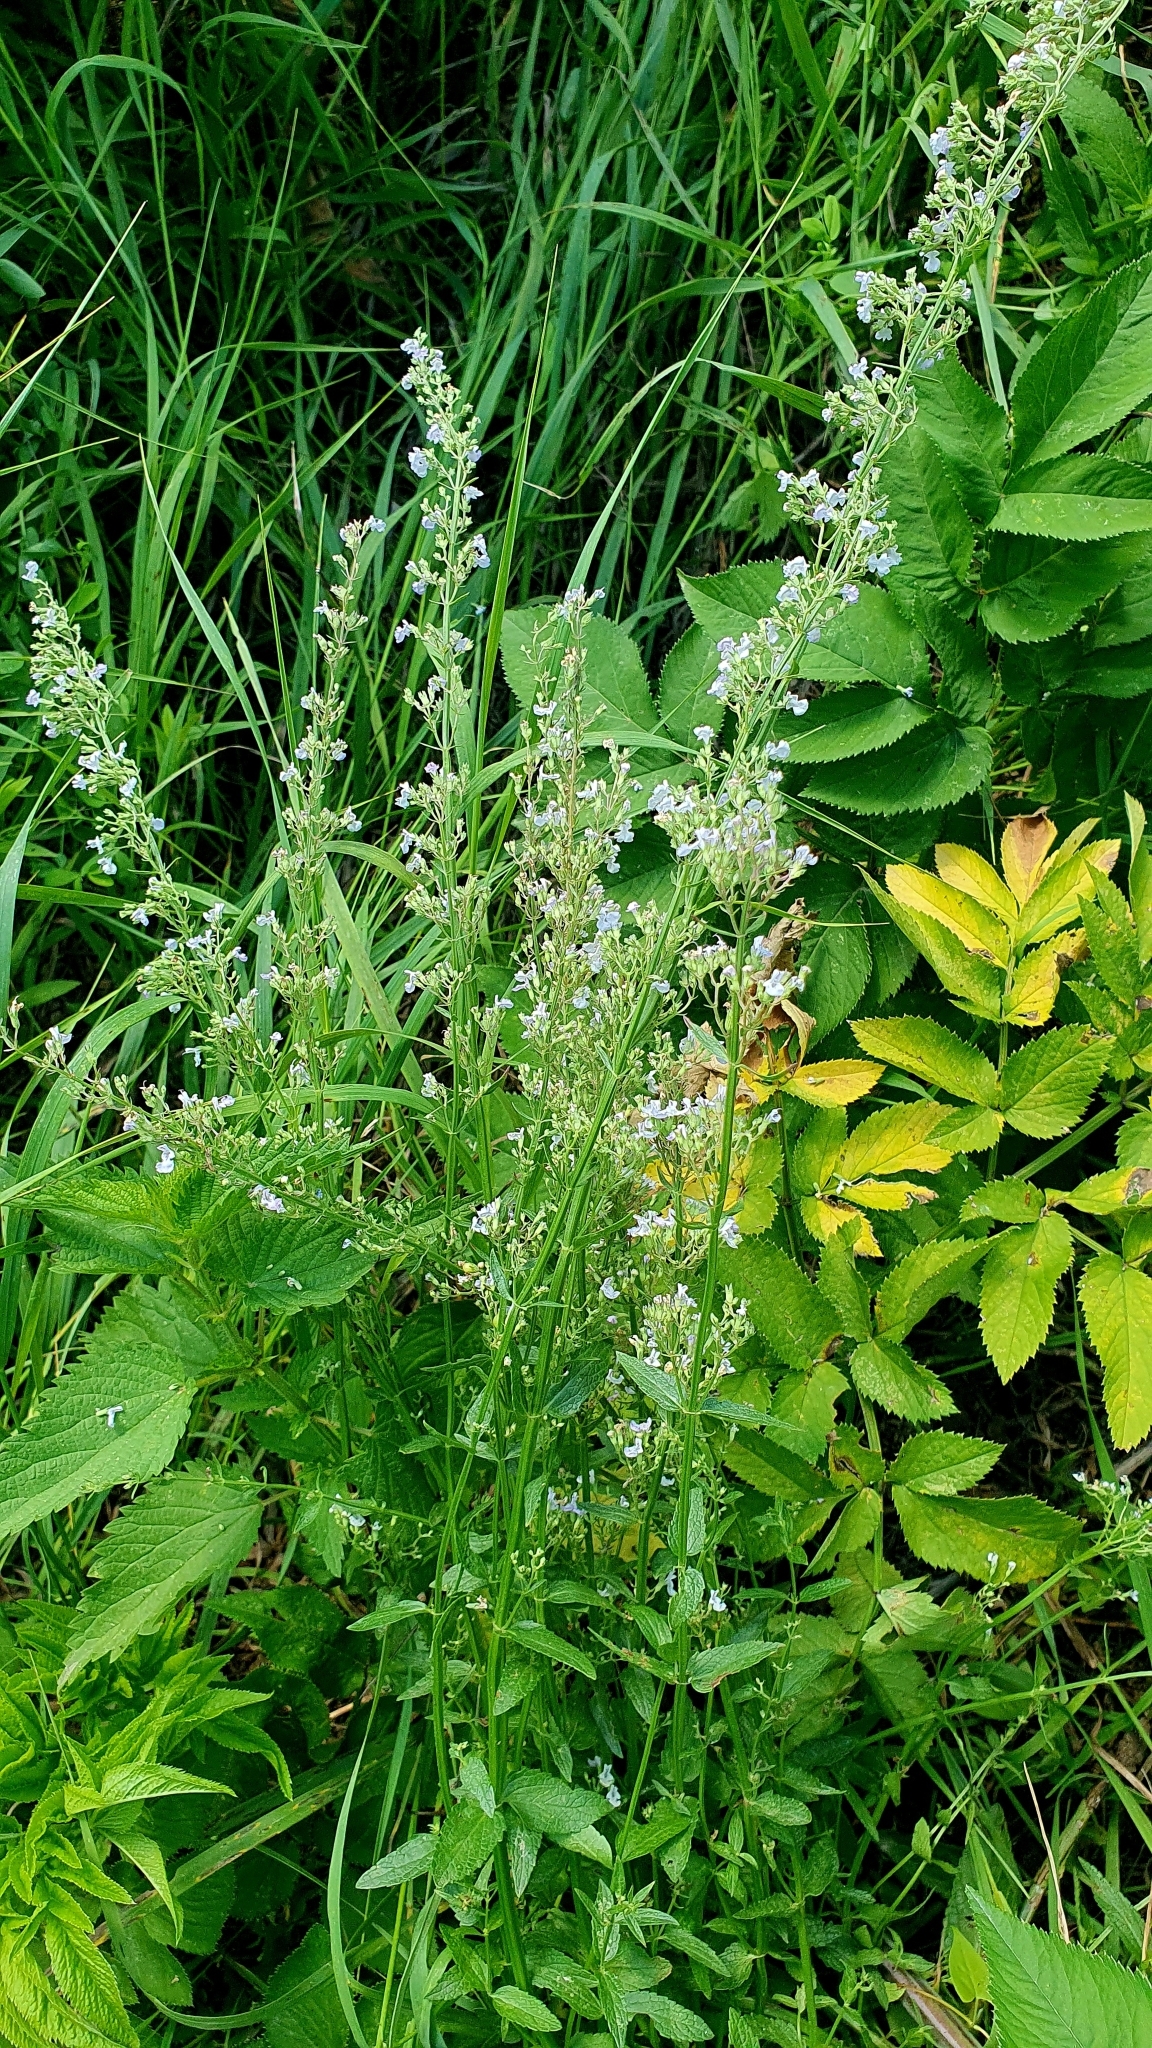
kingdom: Plantae
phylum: Tracheophyta
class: Magnoliopsida
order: Lamiales
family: Lamiaceae
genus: Nepeta
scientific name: Nepeta nuda
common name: Hairless catmint
